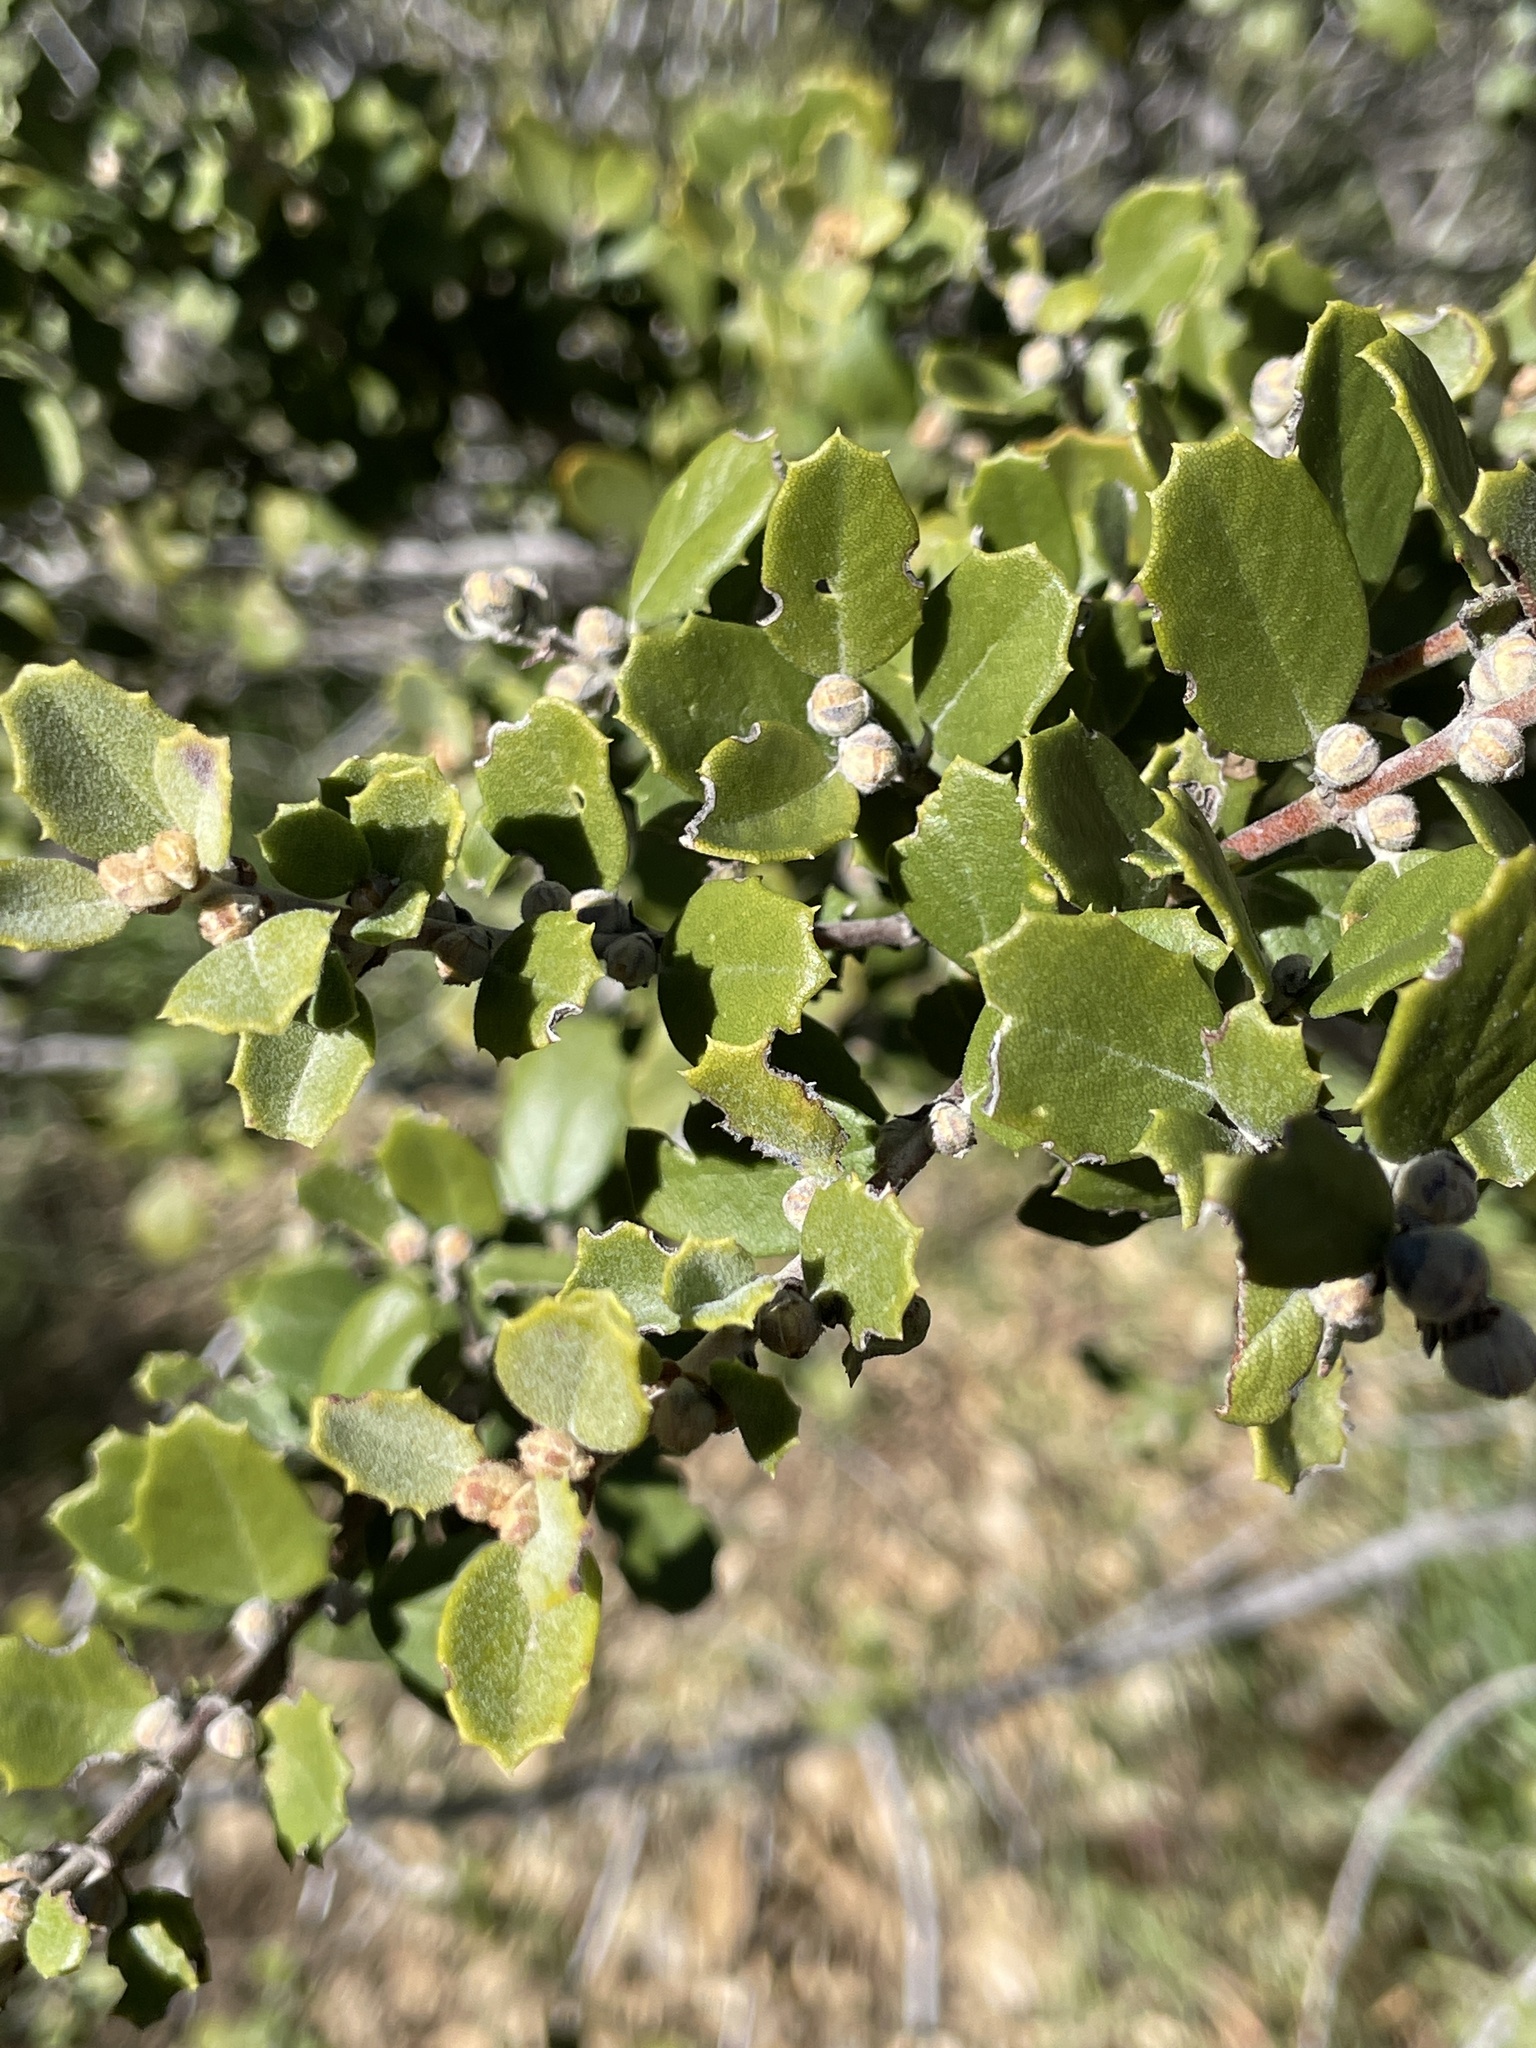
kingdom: Plantae
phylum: Tracheophyta
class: Magnoliopsida
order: Rosales
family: Rhamnaceae
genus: Ceanothus
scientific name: Ceanothus perplexans
